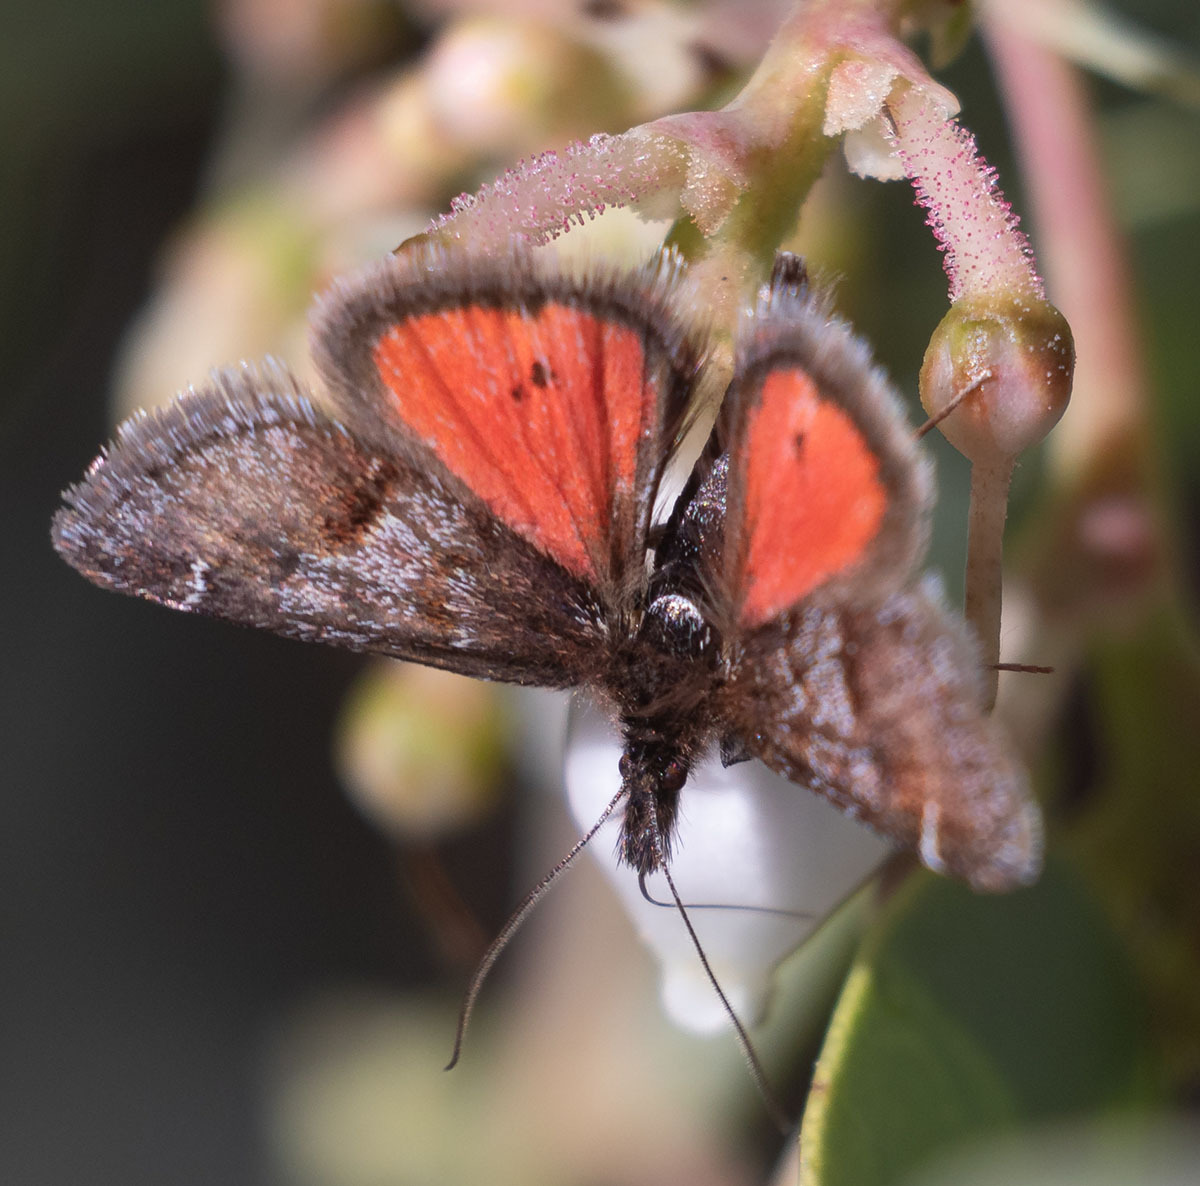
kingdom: Animalia
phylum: Arthropoda
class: Insecta
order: Lepidoptera
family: Crambidae
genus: Pyrausta
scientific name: Pyrausta dapalis
